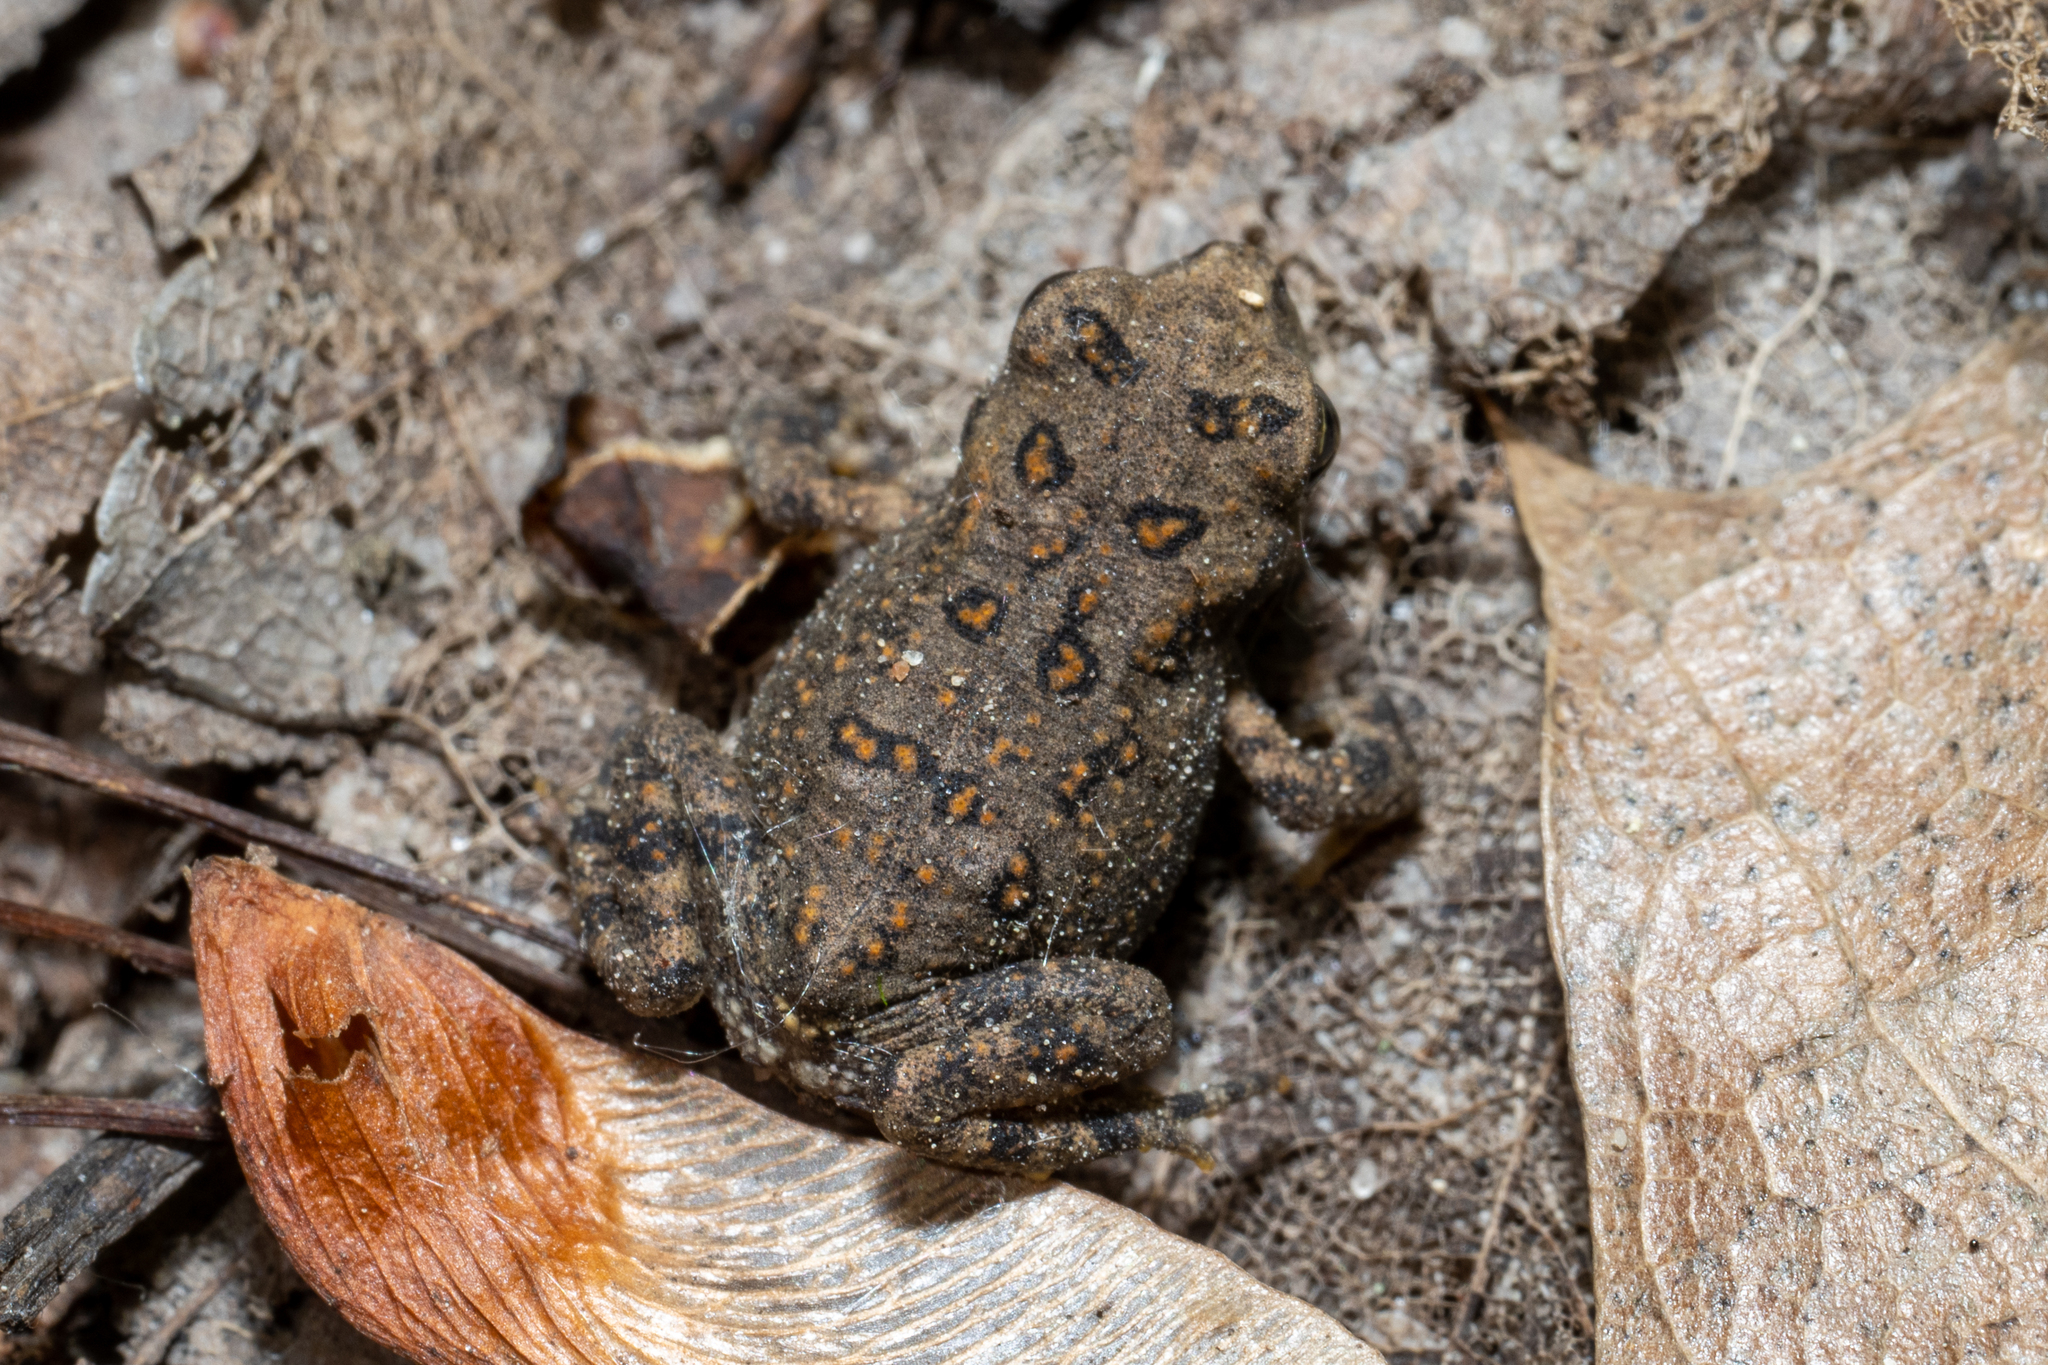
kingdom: Animalia
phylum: Chordata
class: Amphibia
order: Anura
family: Bufonidae
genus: Anaxyrus
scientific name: Anaxyrus americanus
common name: American toad
